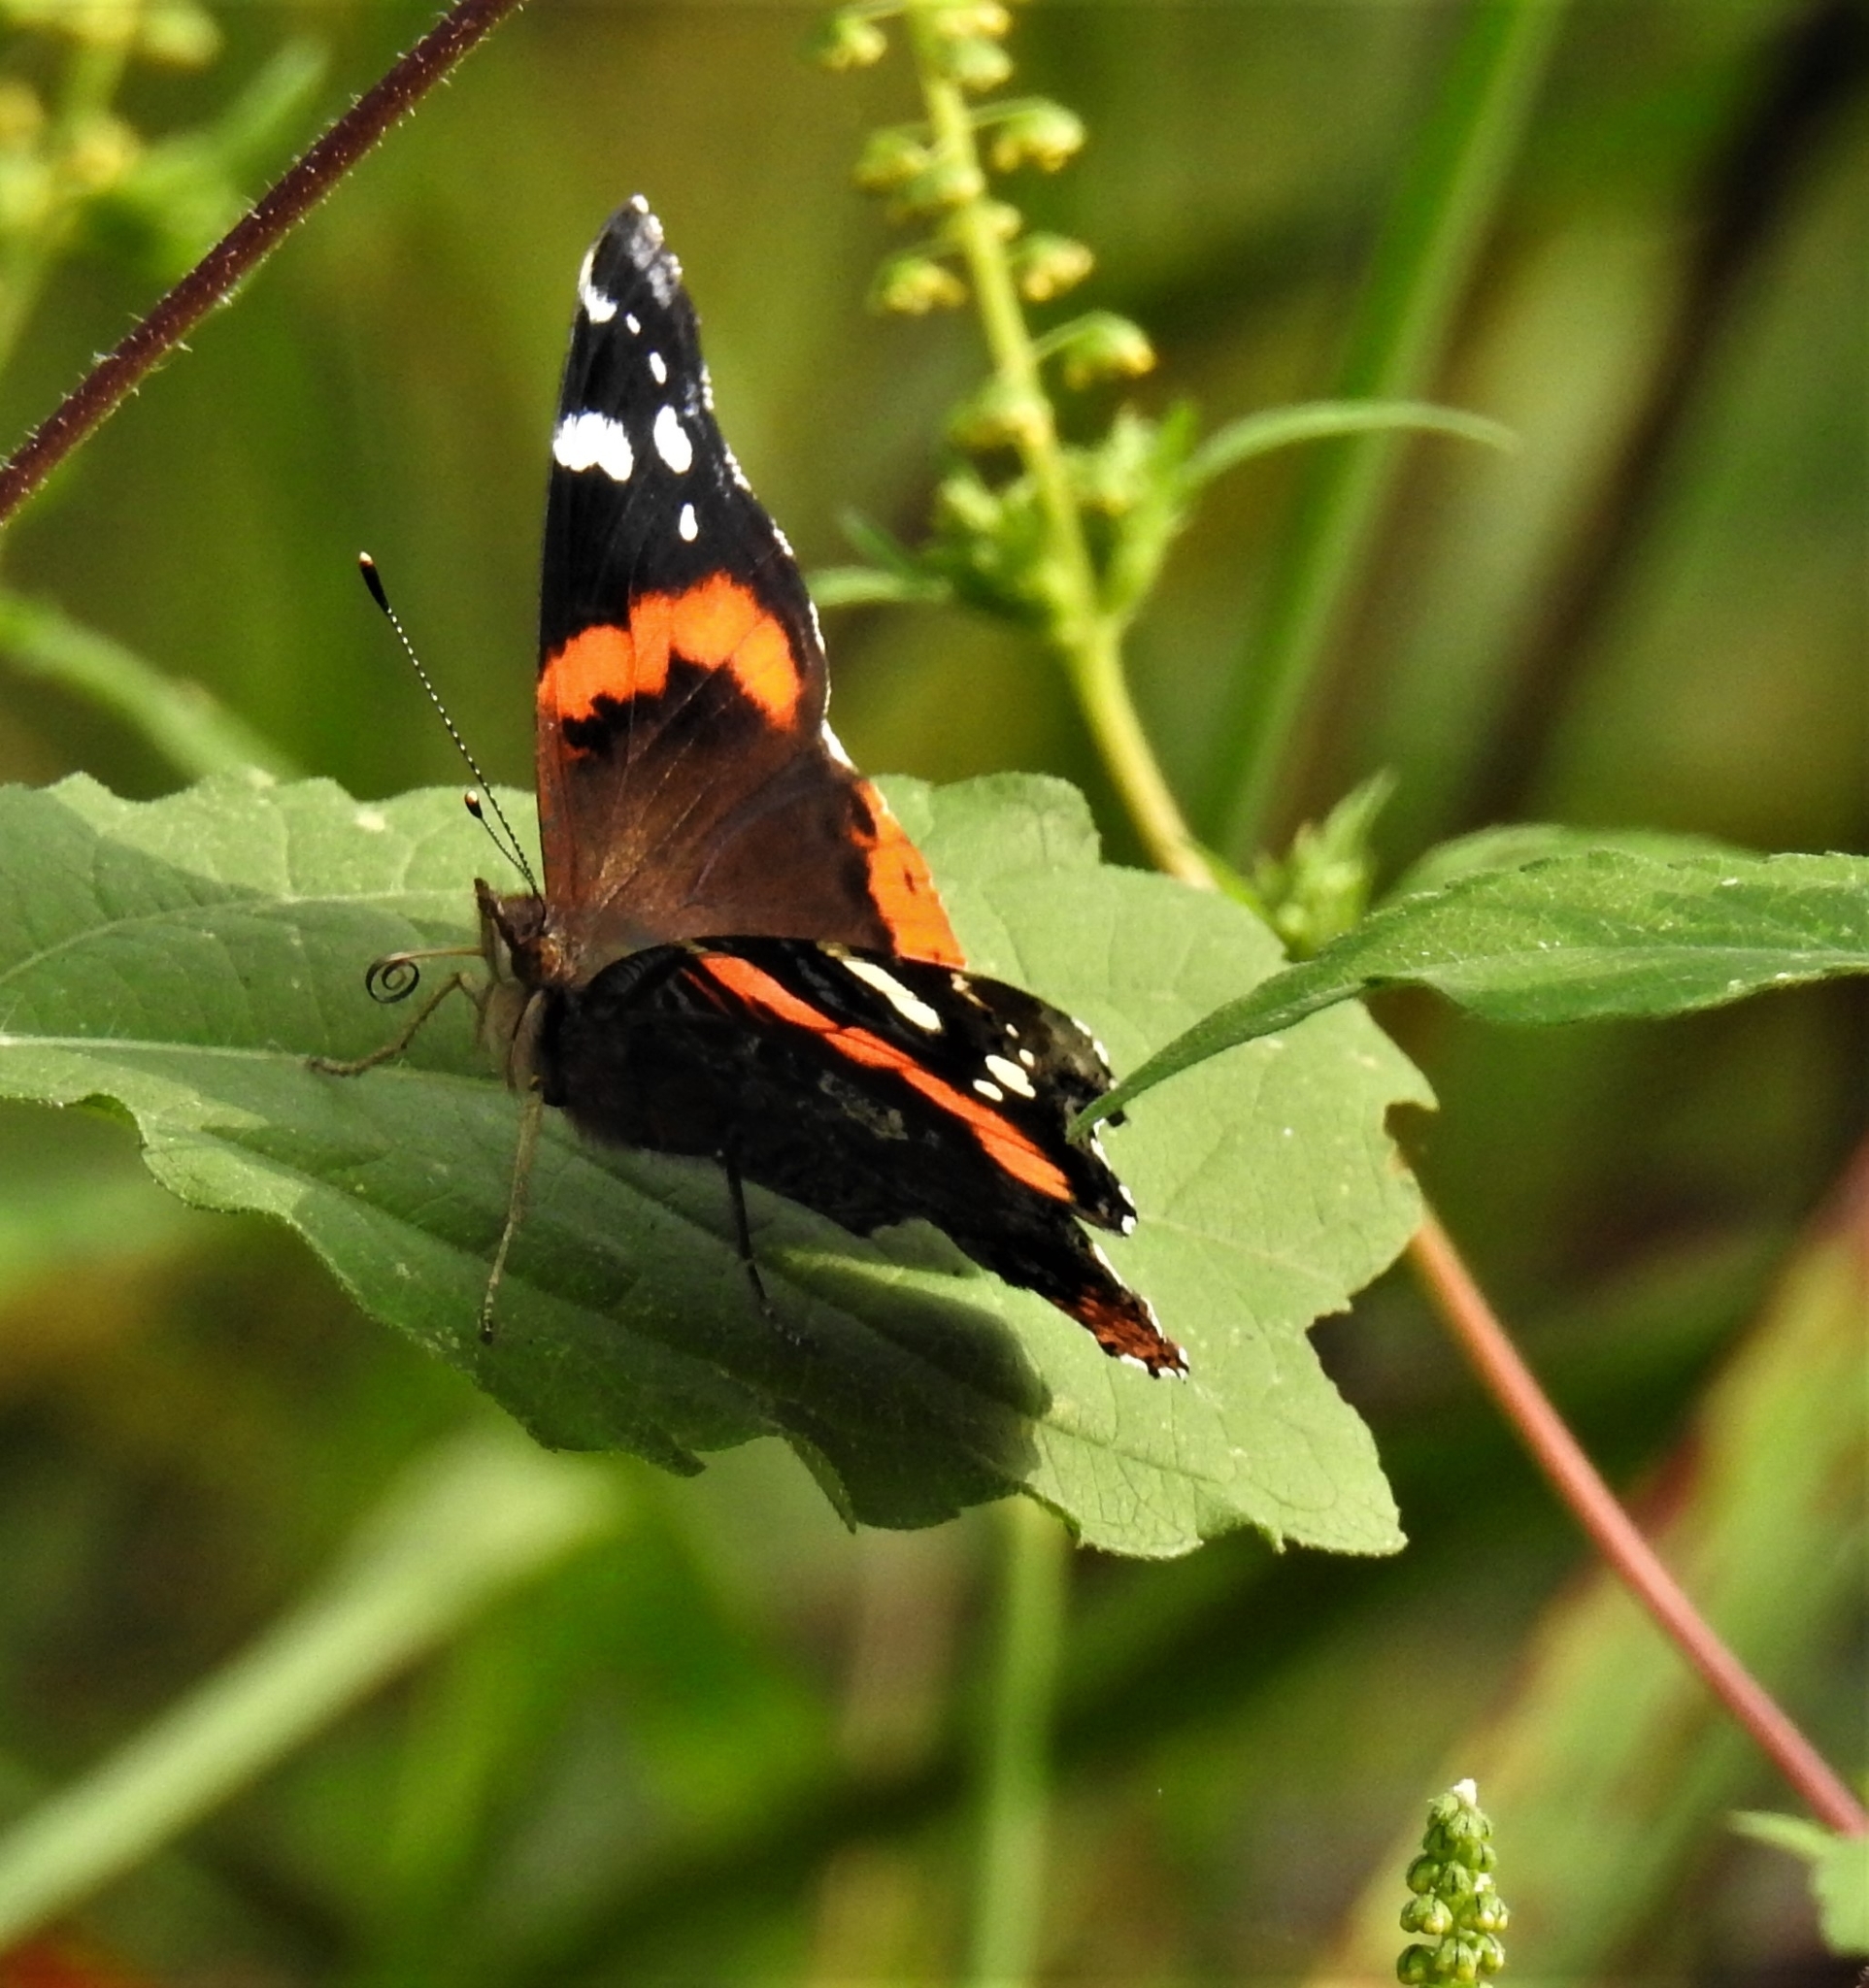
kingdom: Animalia
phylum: Arthropoda
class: Insecta
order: Lepidoptera
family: Nymphalidae
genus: Vanessa
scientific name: Vanessa atalanta
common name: Red admiral
